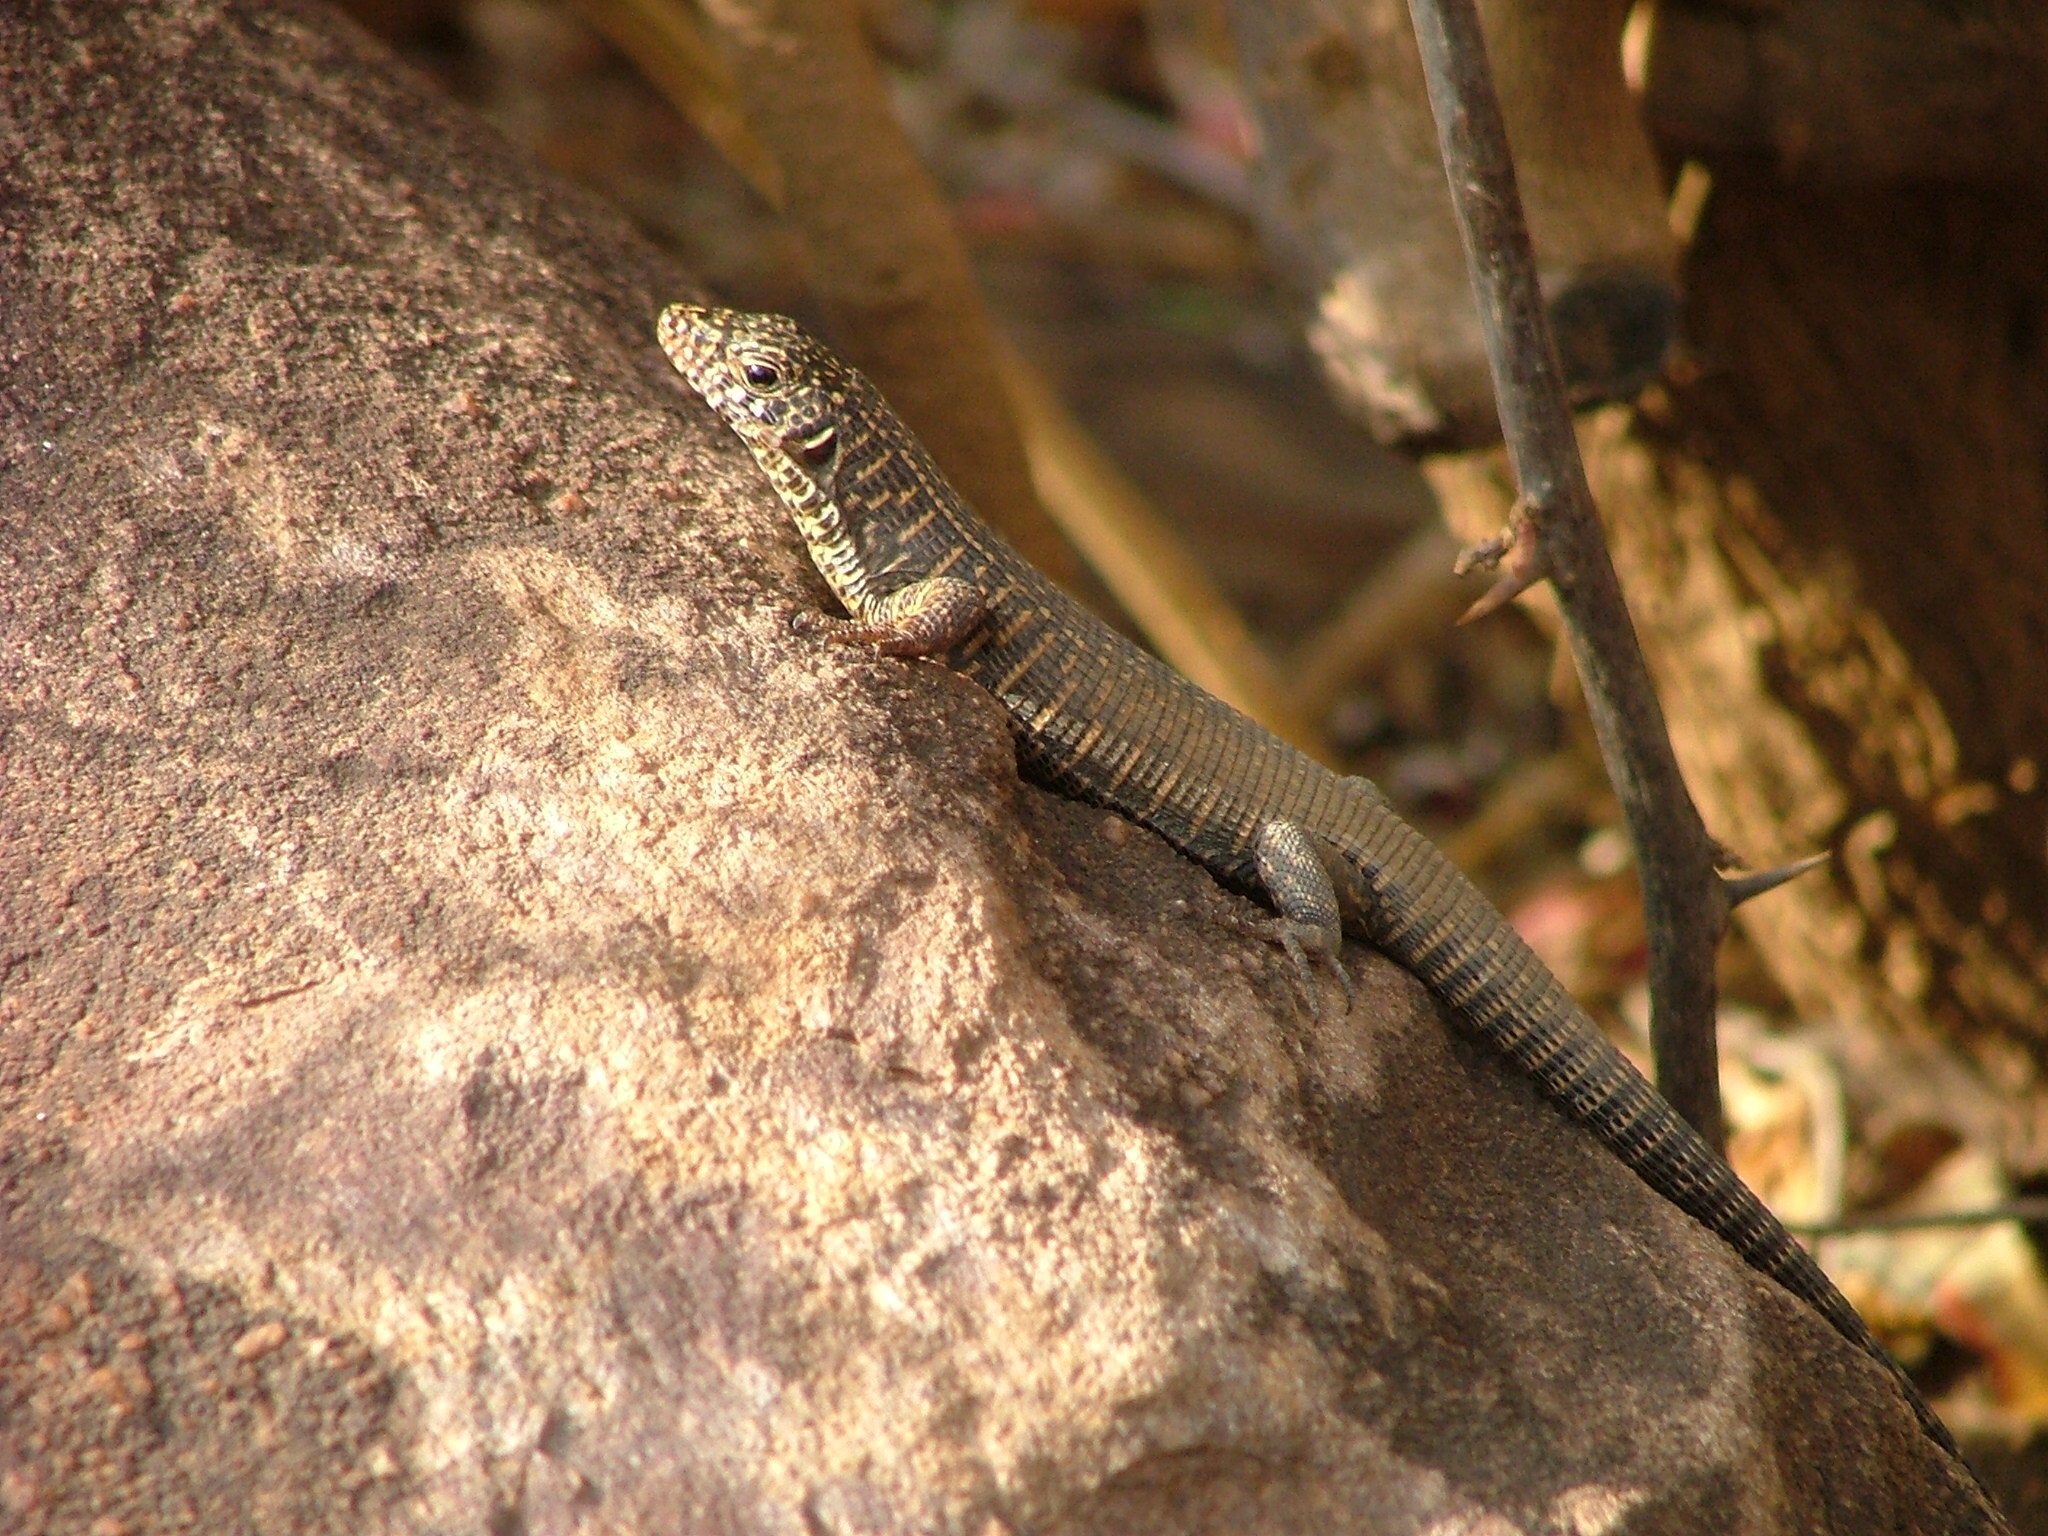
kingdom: Animalia
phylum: Chordata
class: Squamata
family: Gerrhosauridae
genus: Matobosaurus
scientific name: Matobosaurus validus
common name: Common giant plated lizard
